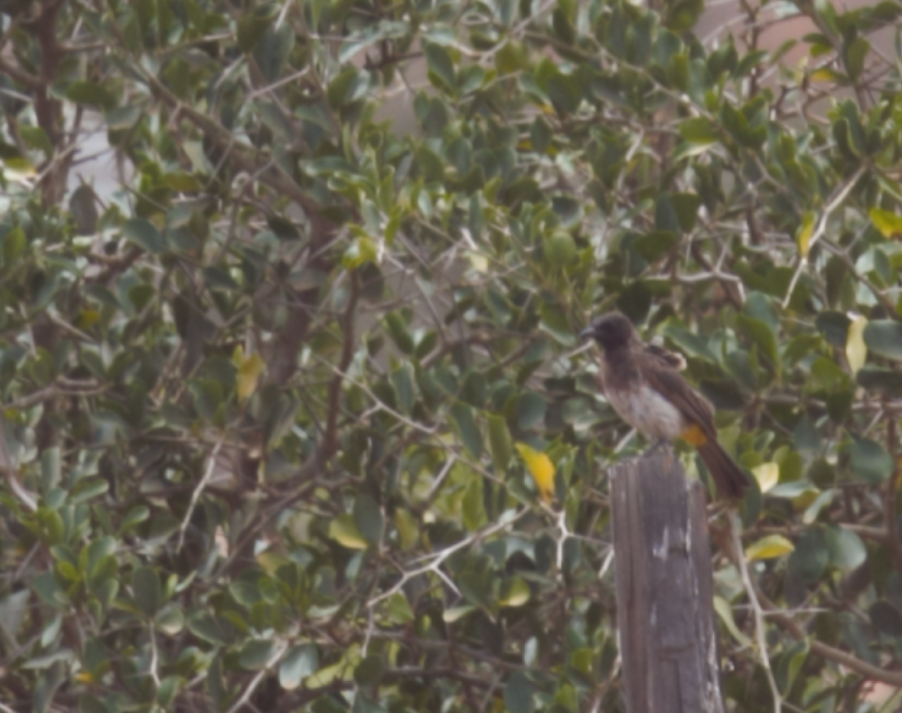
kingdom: Animalia
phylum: Chordata
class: Aves
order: Passeriformes
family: Pycnonotidae
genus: Pycnonotus
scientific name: Pycnonotus barbatus
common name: Common bulbul
